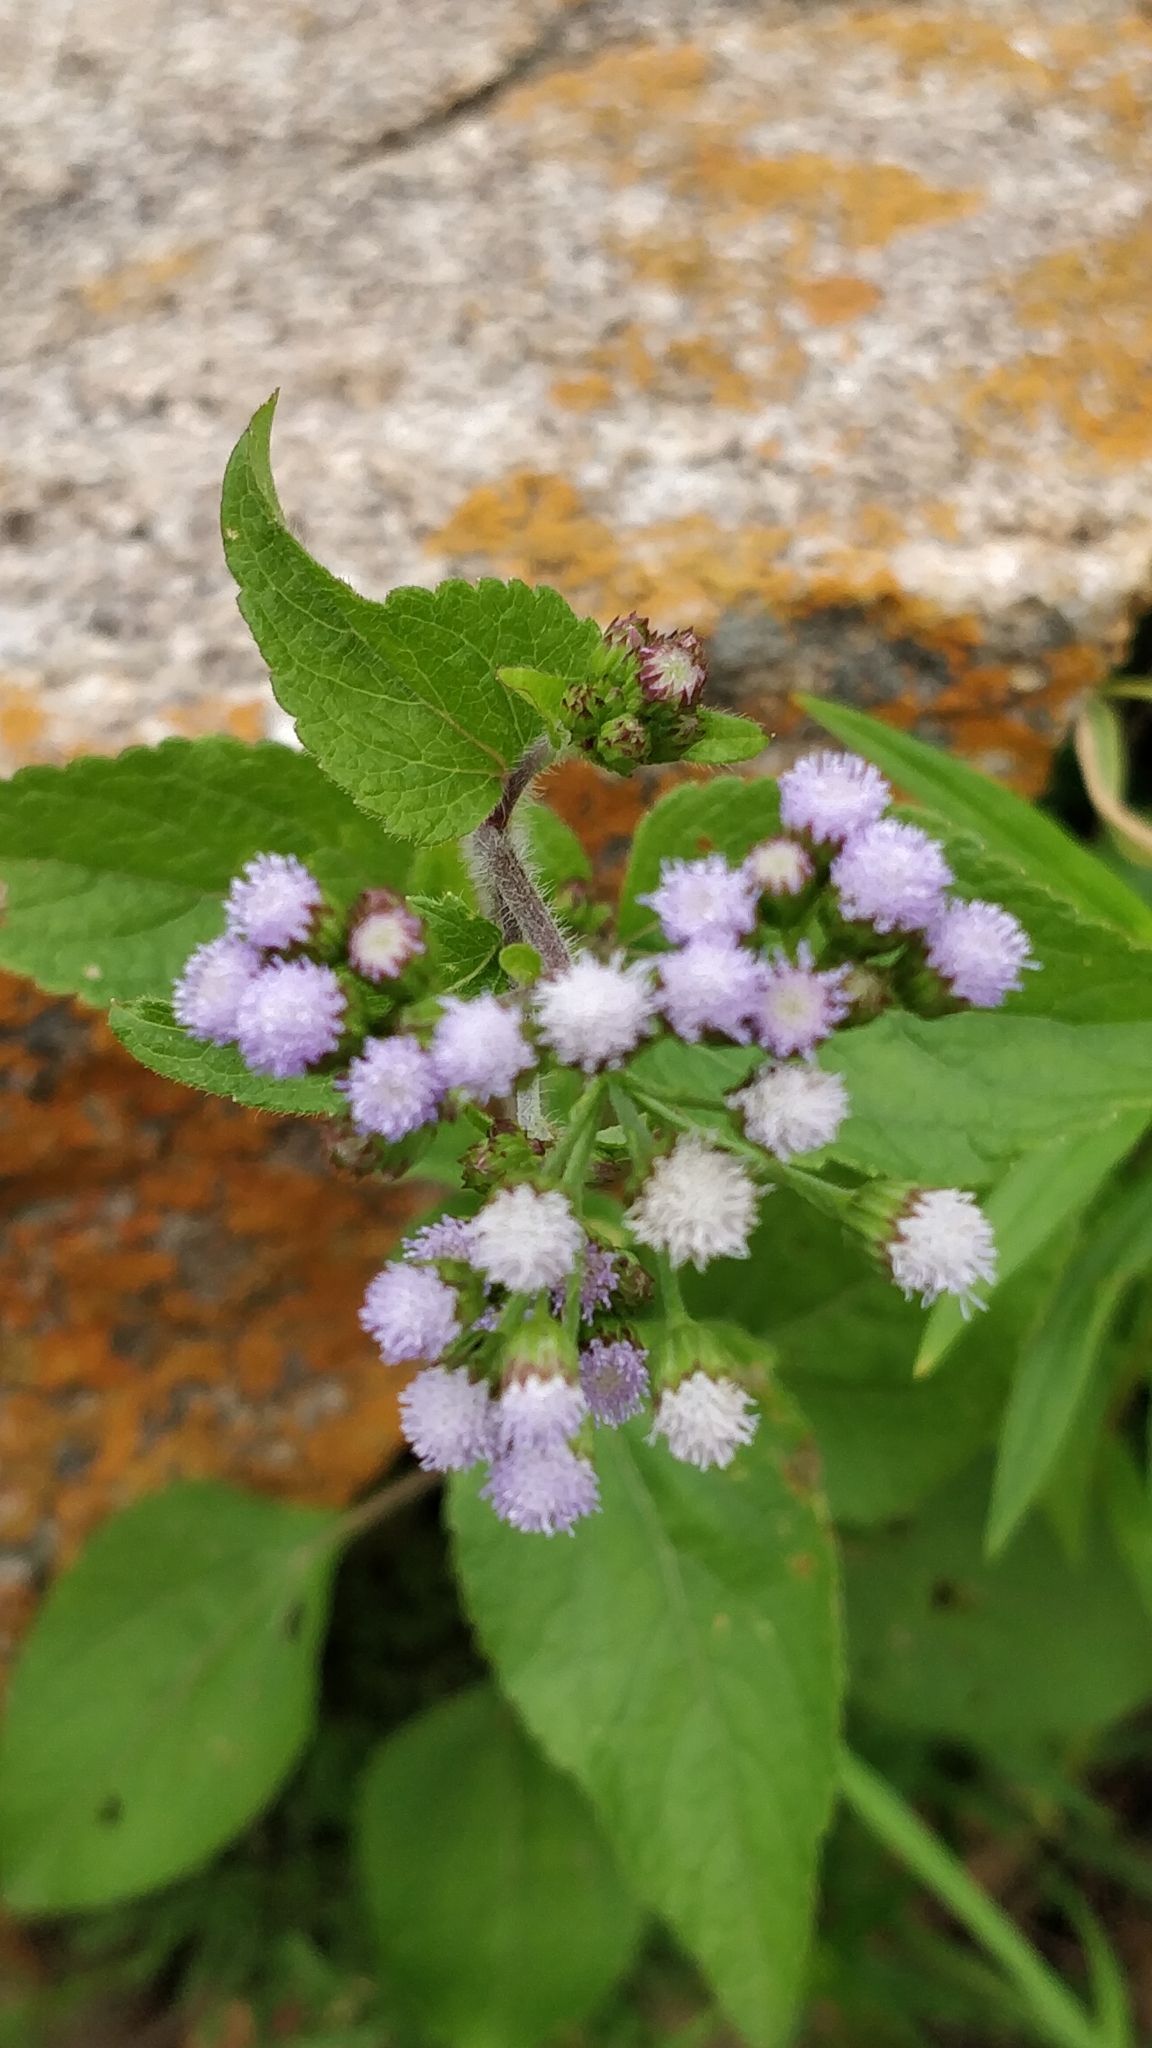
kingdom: Plantae
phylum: Tracheophyta
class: Magnoliopsida
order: Asterales
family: Asteraceae
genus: Ageratum
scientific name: Ageratum conyzoides
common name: Tropical whiteweed
